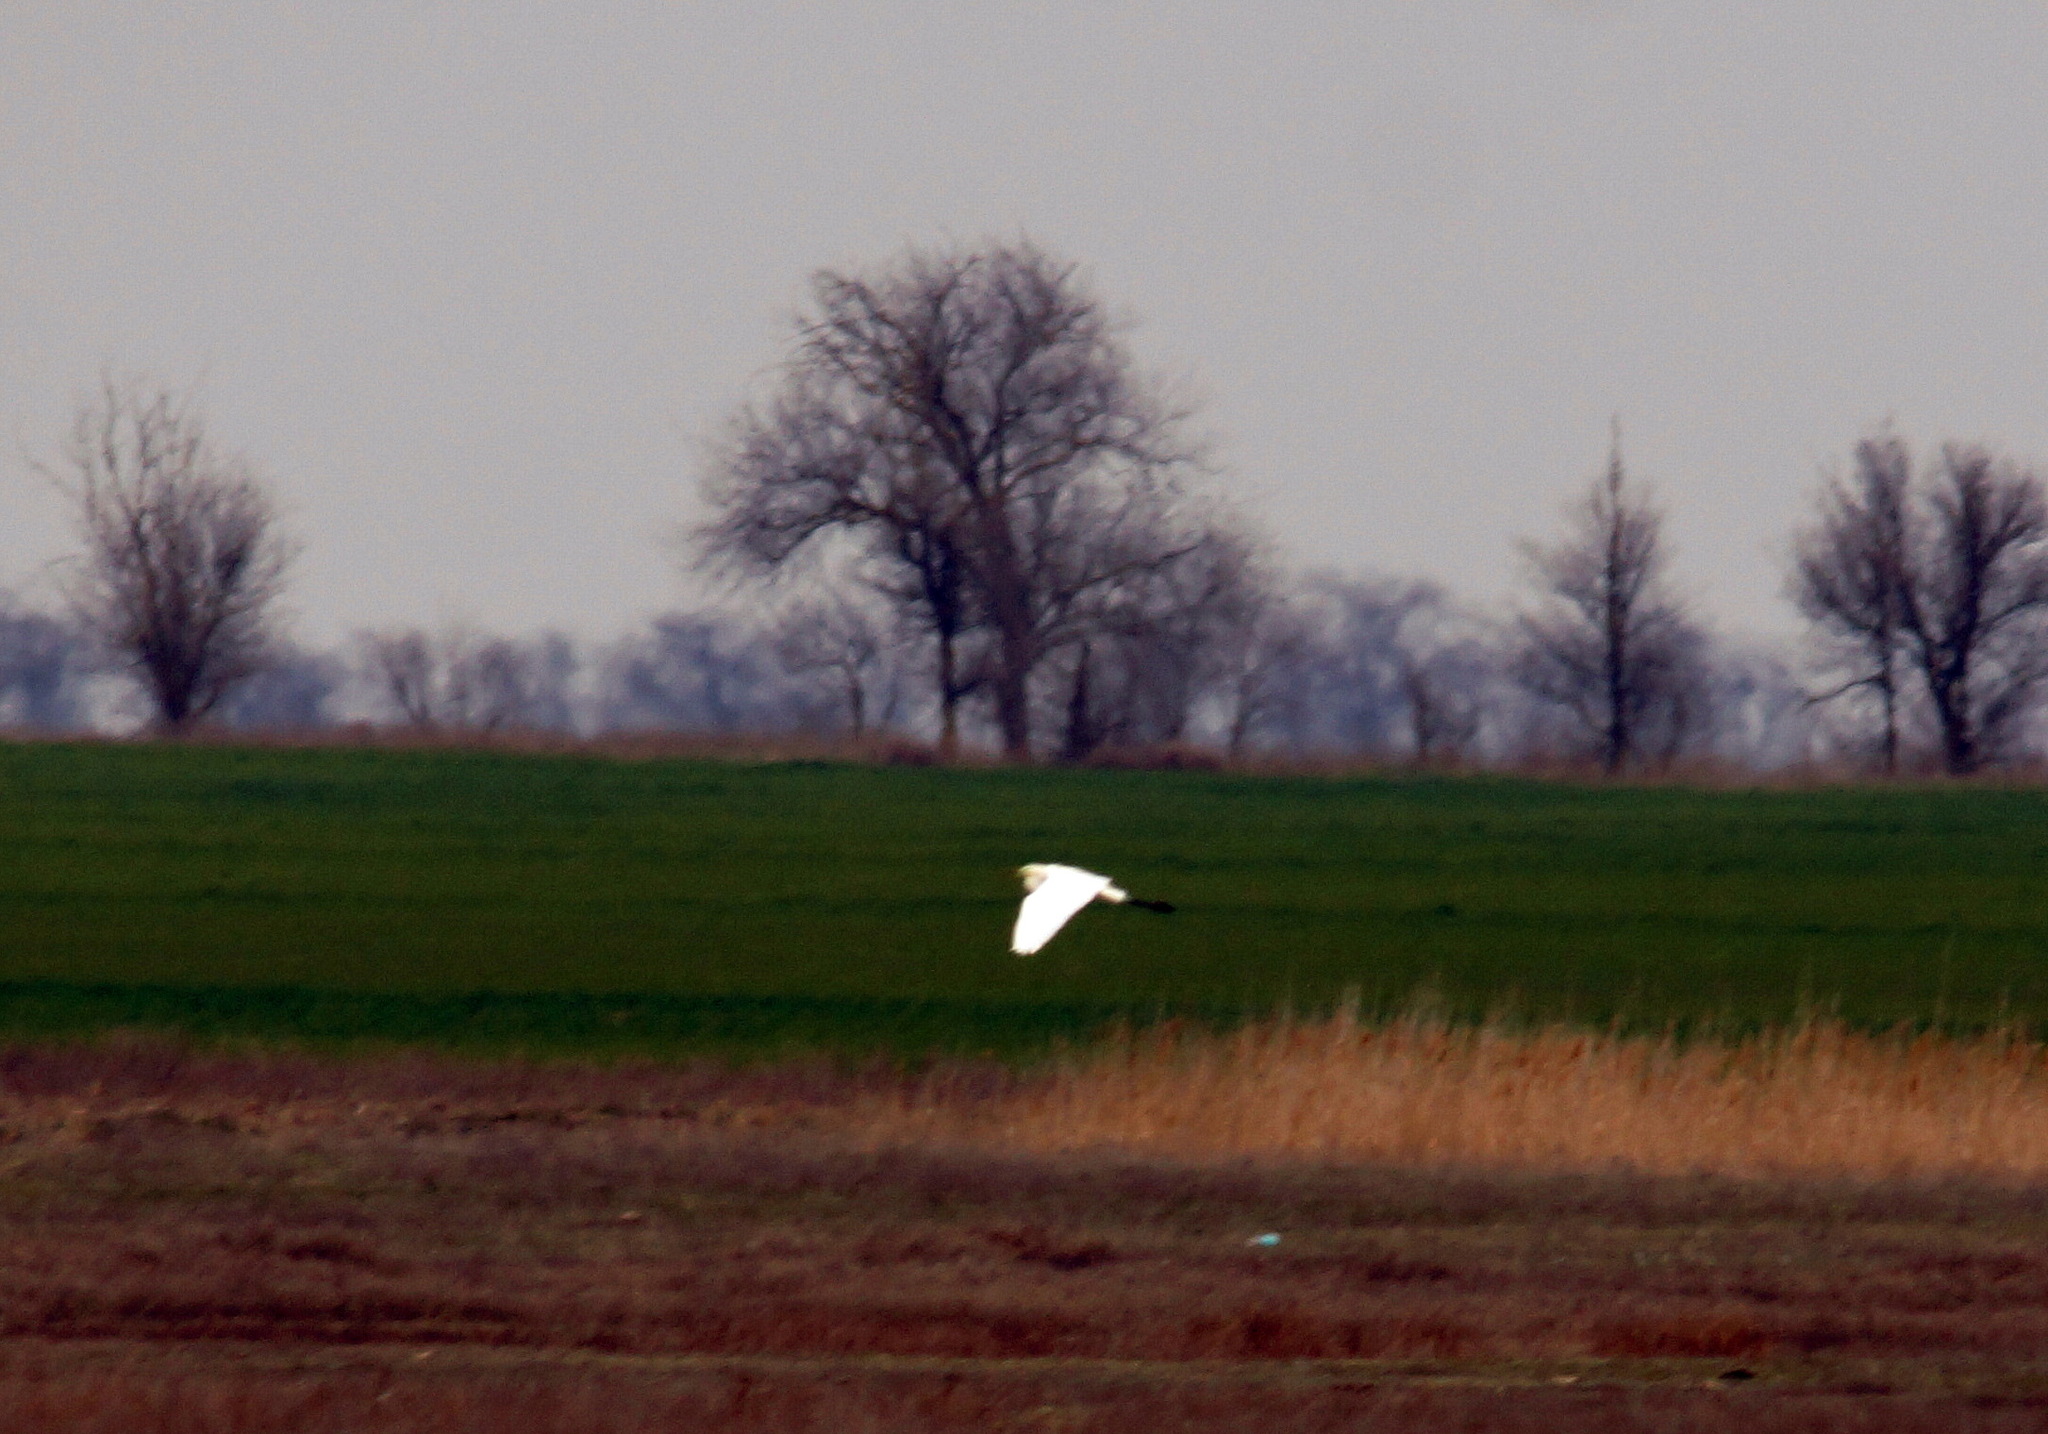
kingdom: Animalia
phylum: Chordata
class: Aves
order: Pelecaniformes
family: Ardeidae
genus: Ardea
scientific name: Ardea alba
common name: Great egret
